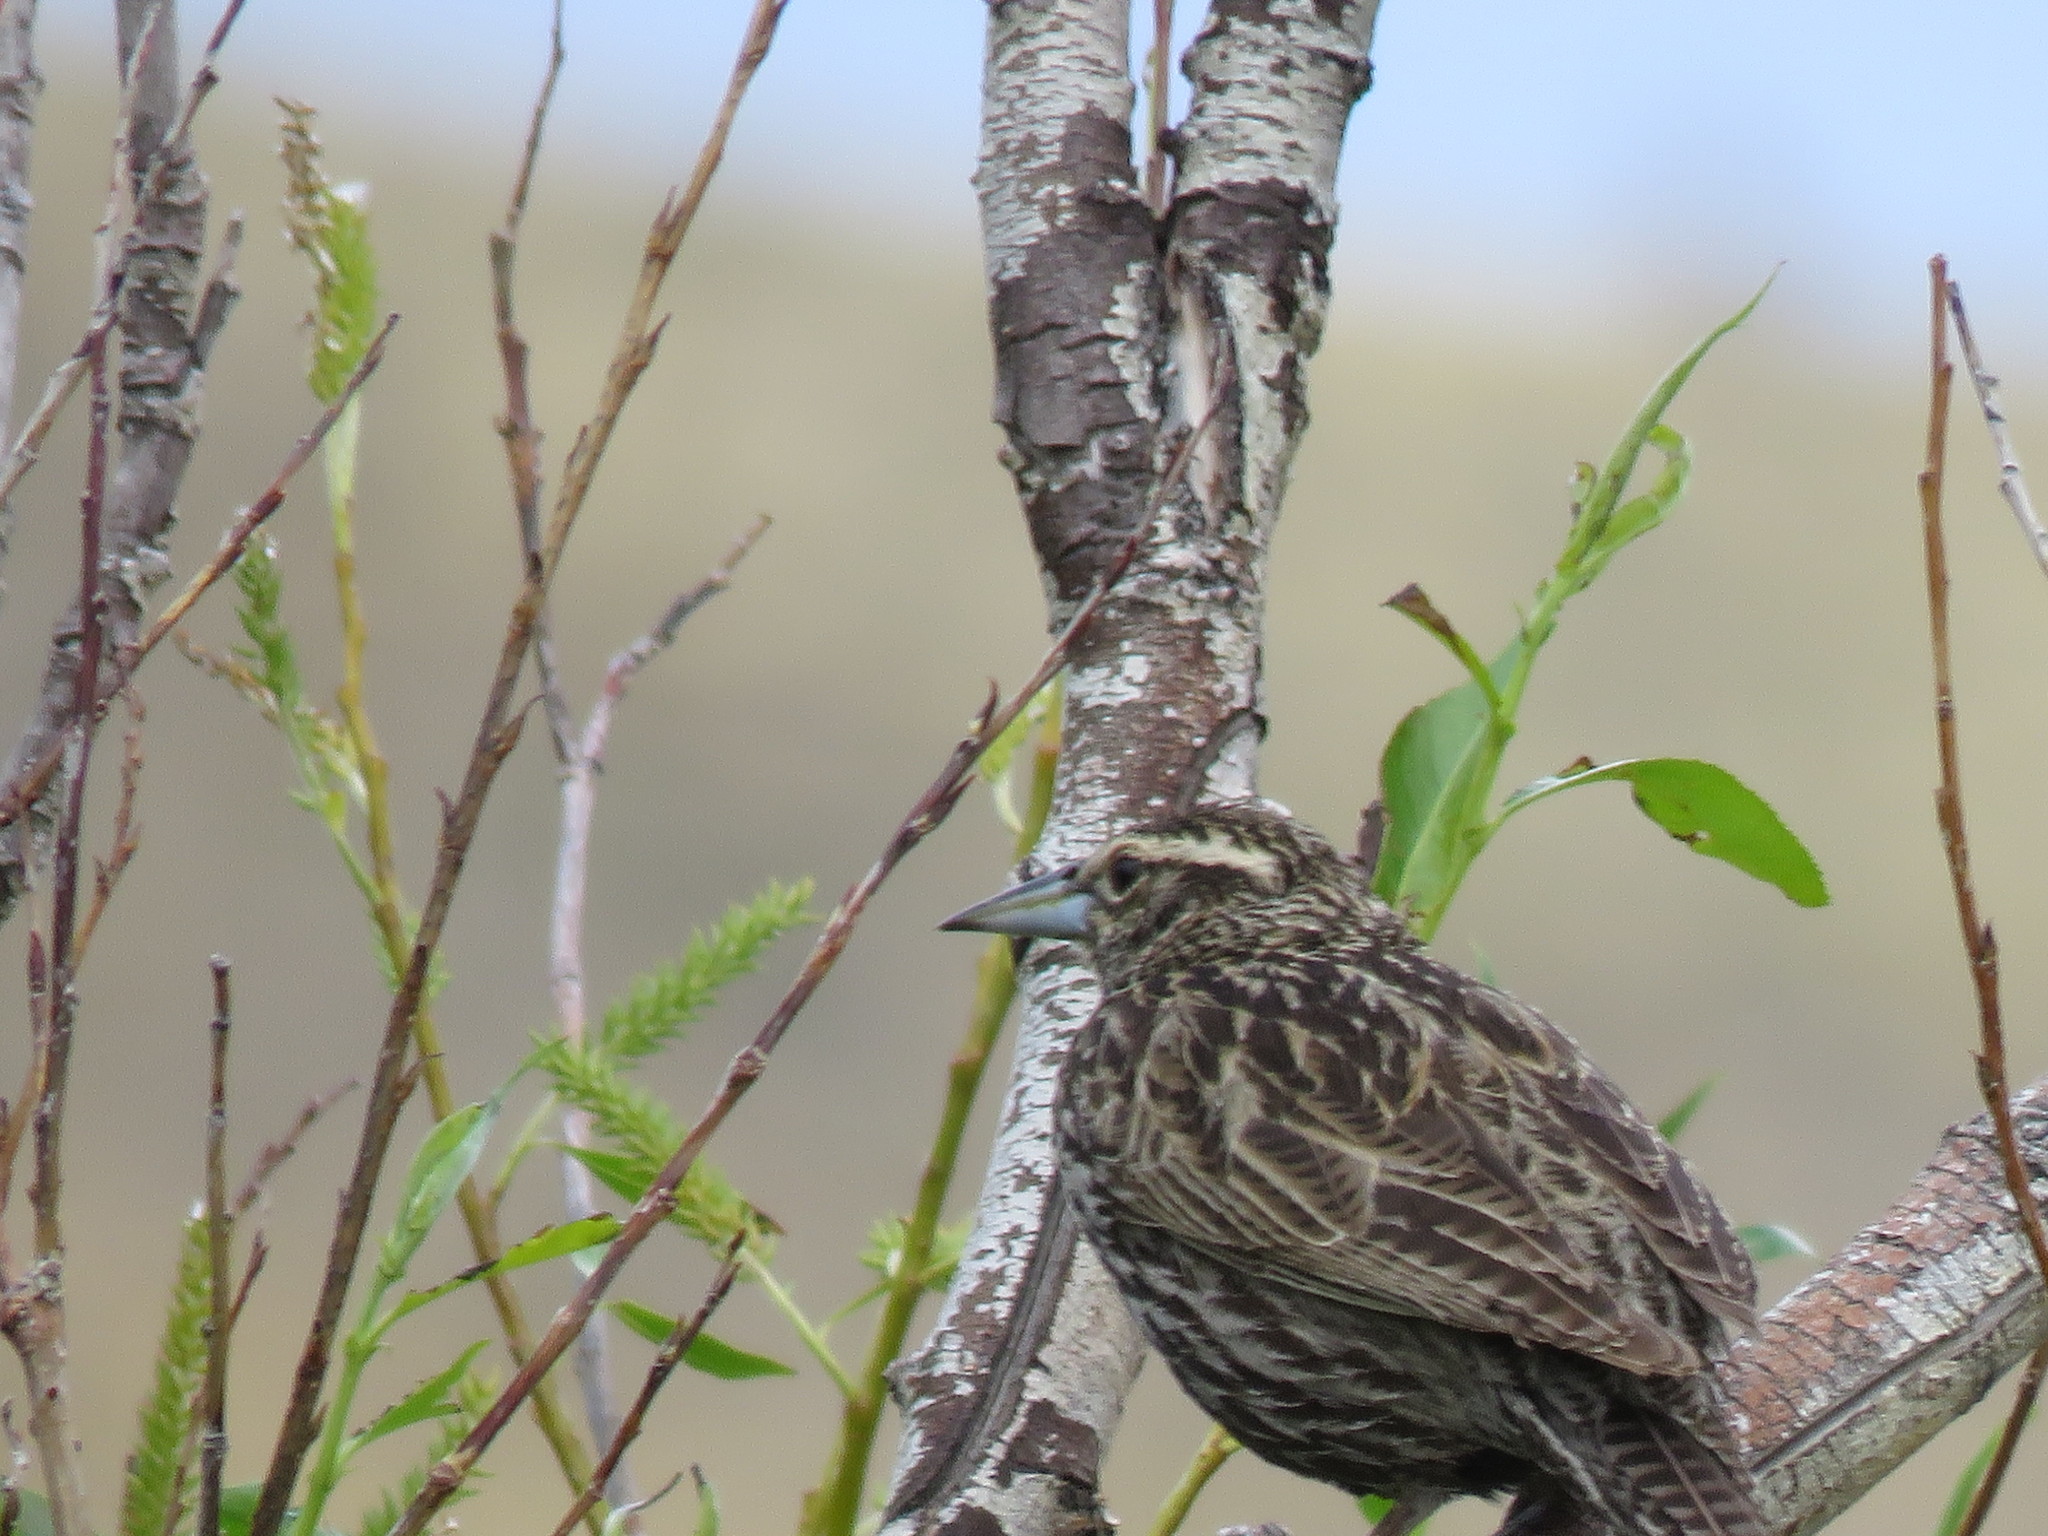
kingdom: Animalia
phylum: Chordata
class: Aves
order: Passeriformes
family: Icteridae
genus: Sturnella
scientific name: Sturnella loyca
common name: Long-tailed meadowlark
